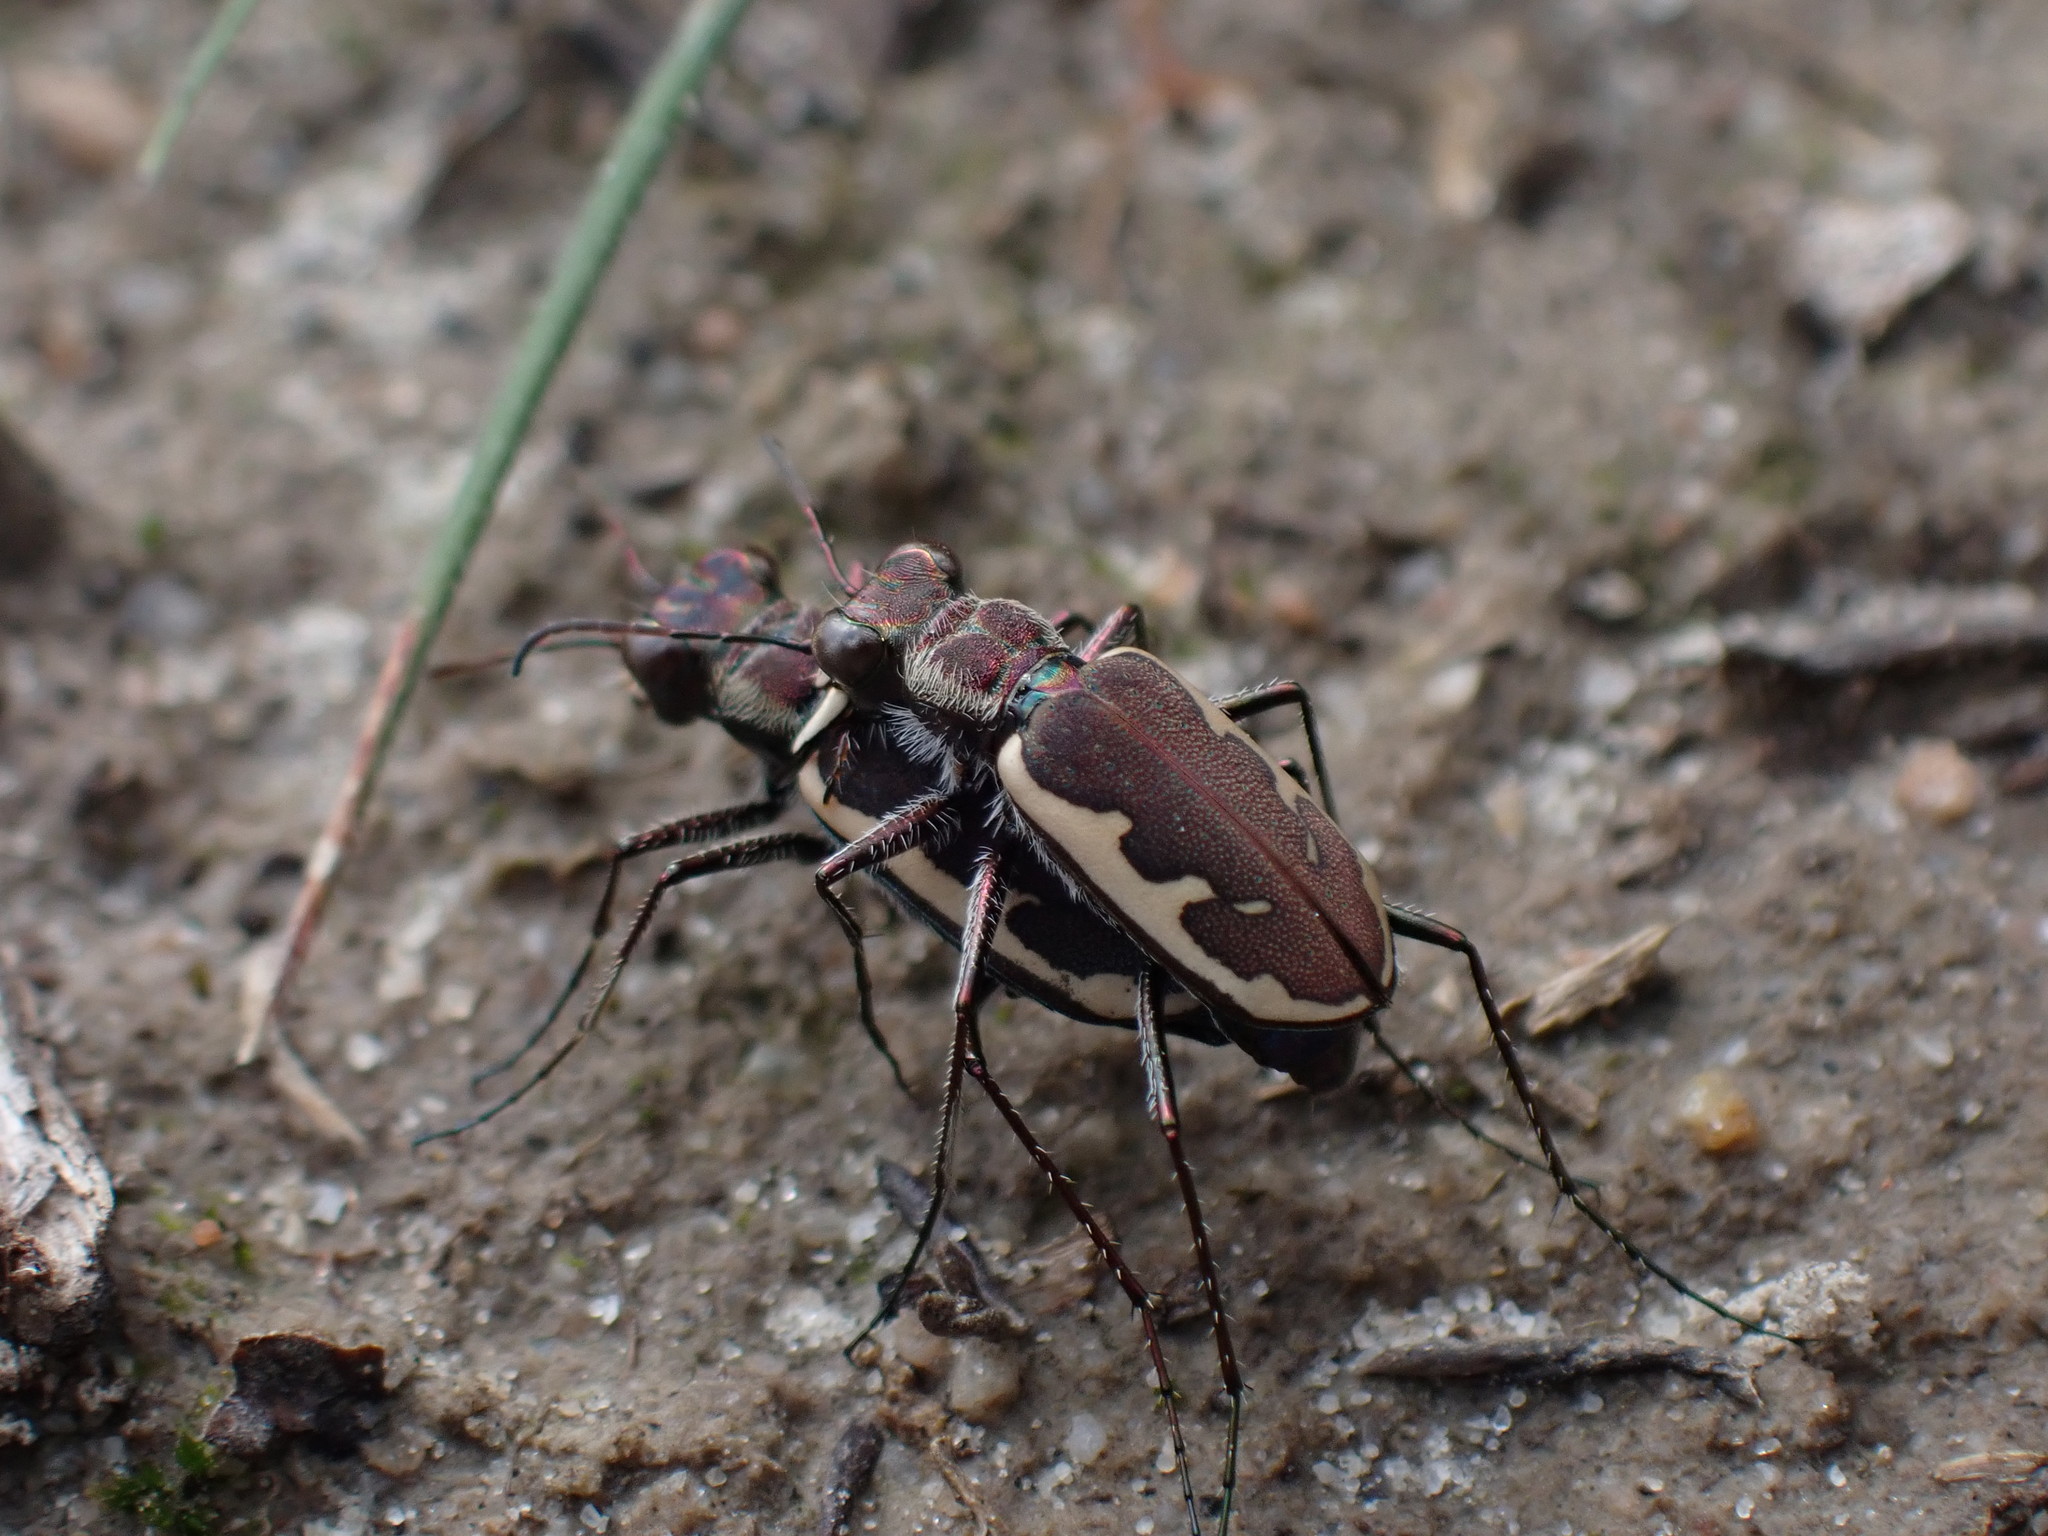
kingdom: Animalia
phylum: Arthropoda
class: Insecta
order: Coleoptera
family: Carabidae
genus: Lophyra
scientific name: Lophyra nitidipes
